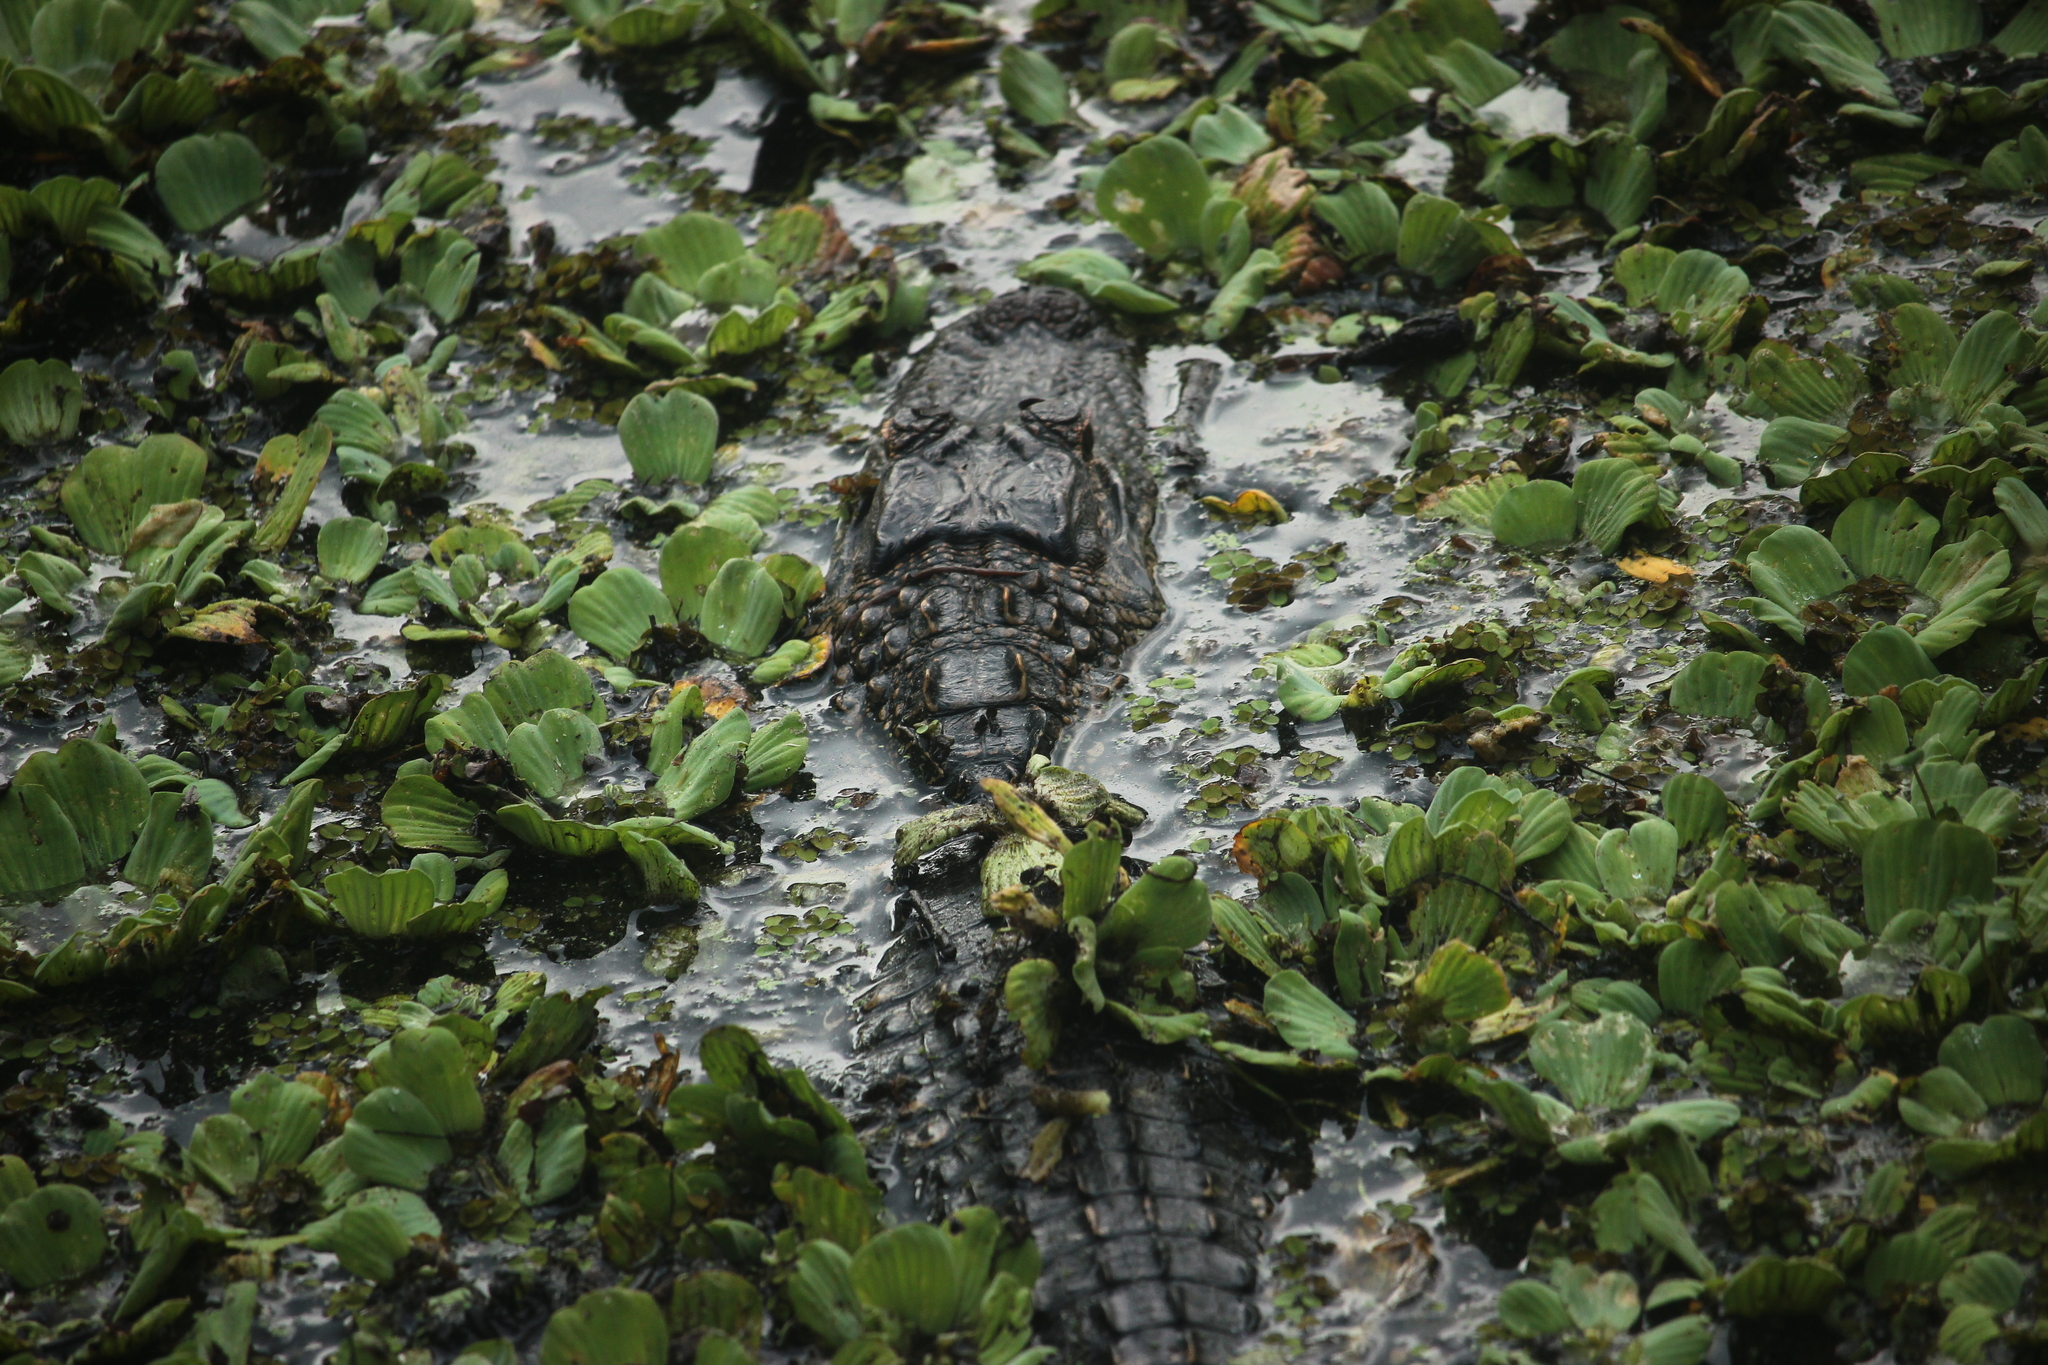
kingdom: Animalia
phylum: Chordata
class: Crocodylia
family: Alligatoridae
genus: Alligator
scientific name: Alligator mississippiensis
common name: American alligator
